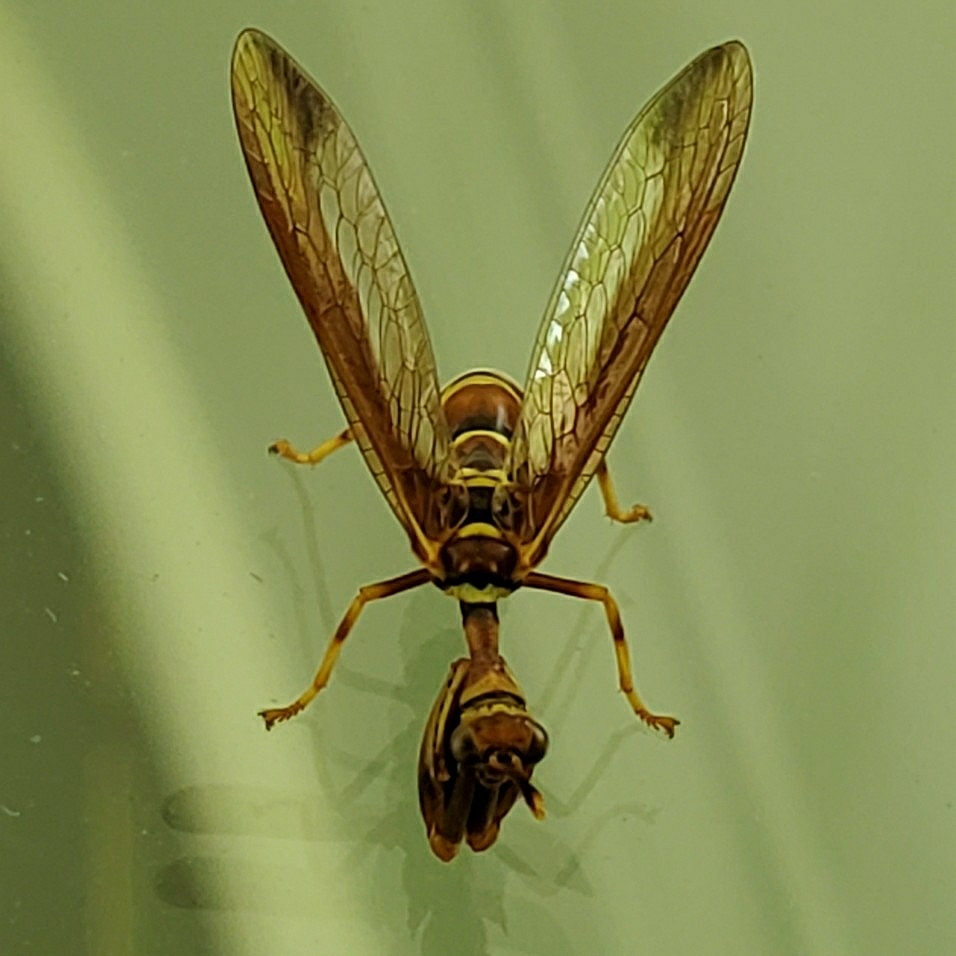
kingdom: Animalia
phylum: Arthropoda
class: Insecta
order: Neuroptera
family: Mantispidae
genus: Climaciella
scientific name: Climaciella brunnea
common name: Brown wasp mantidfly
